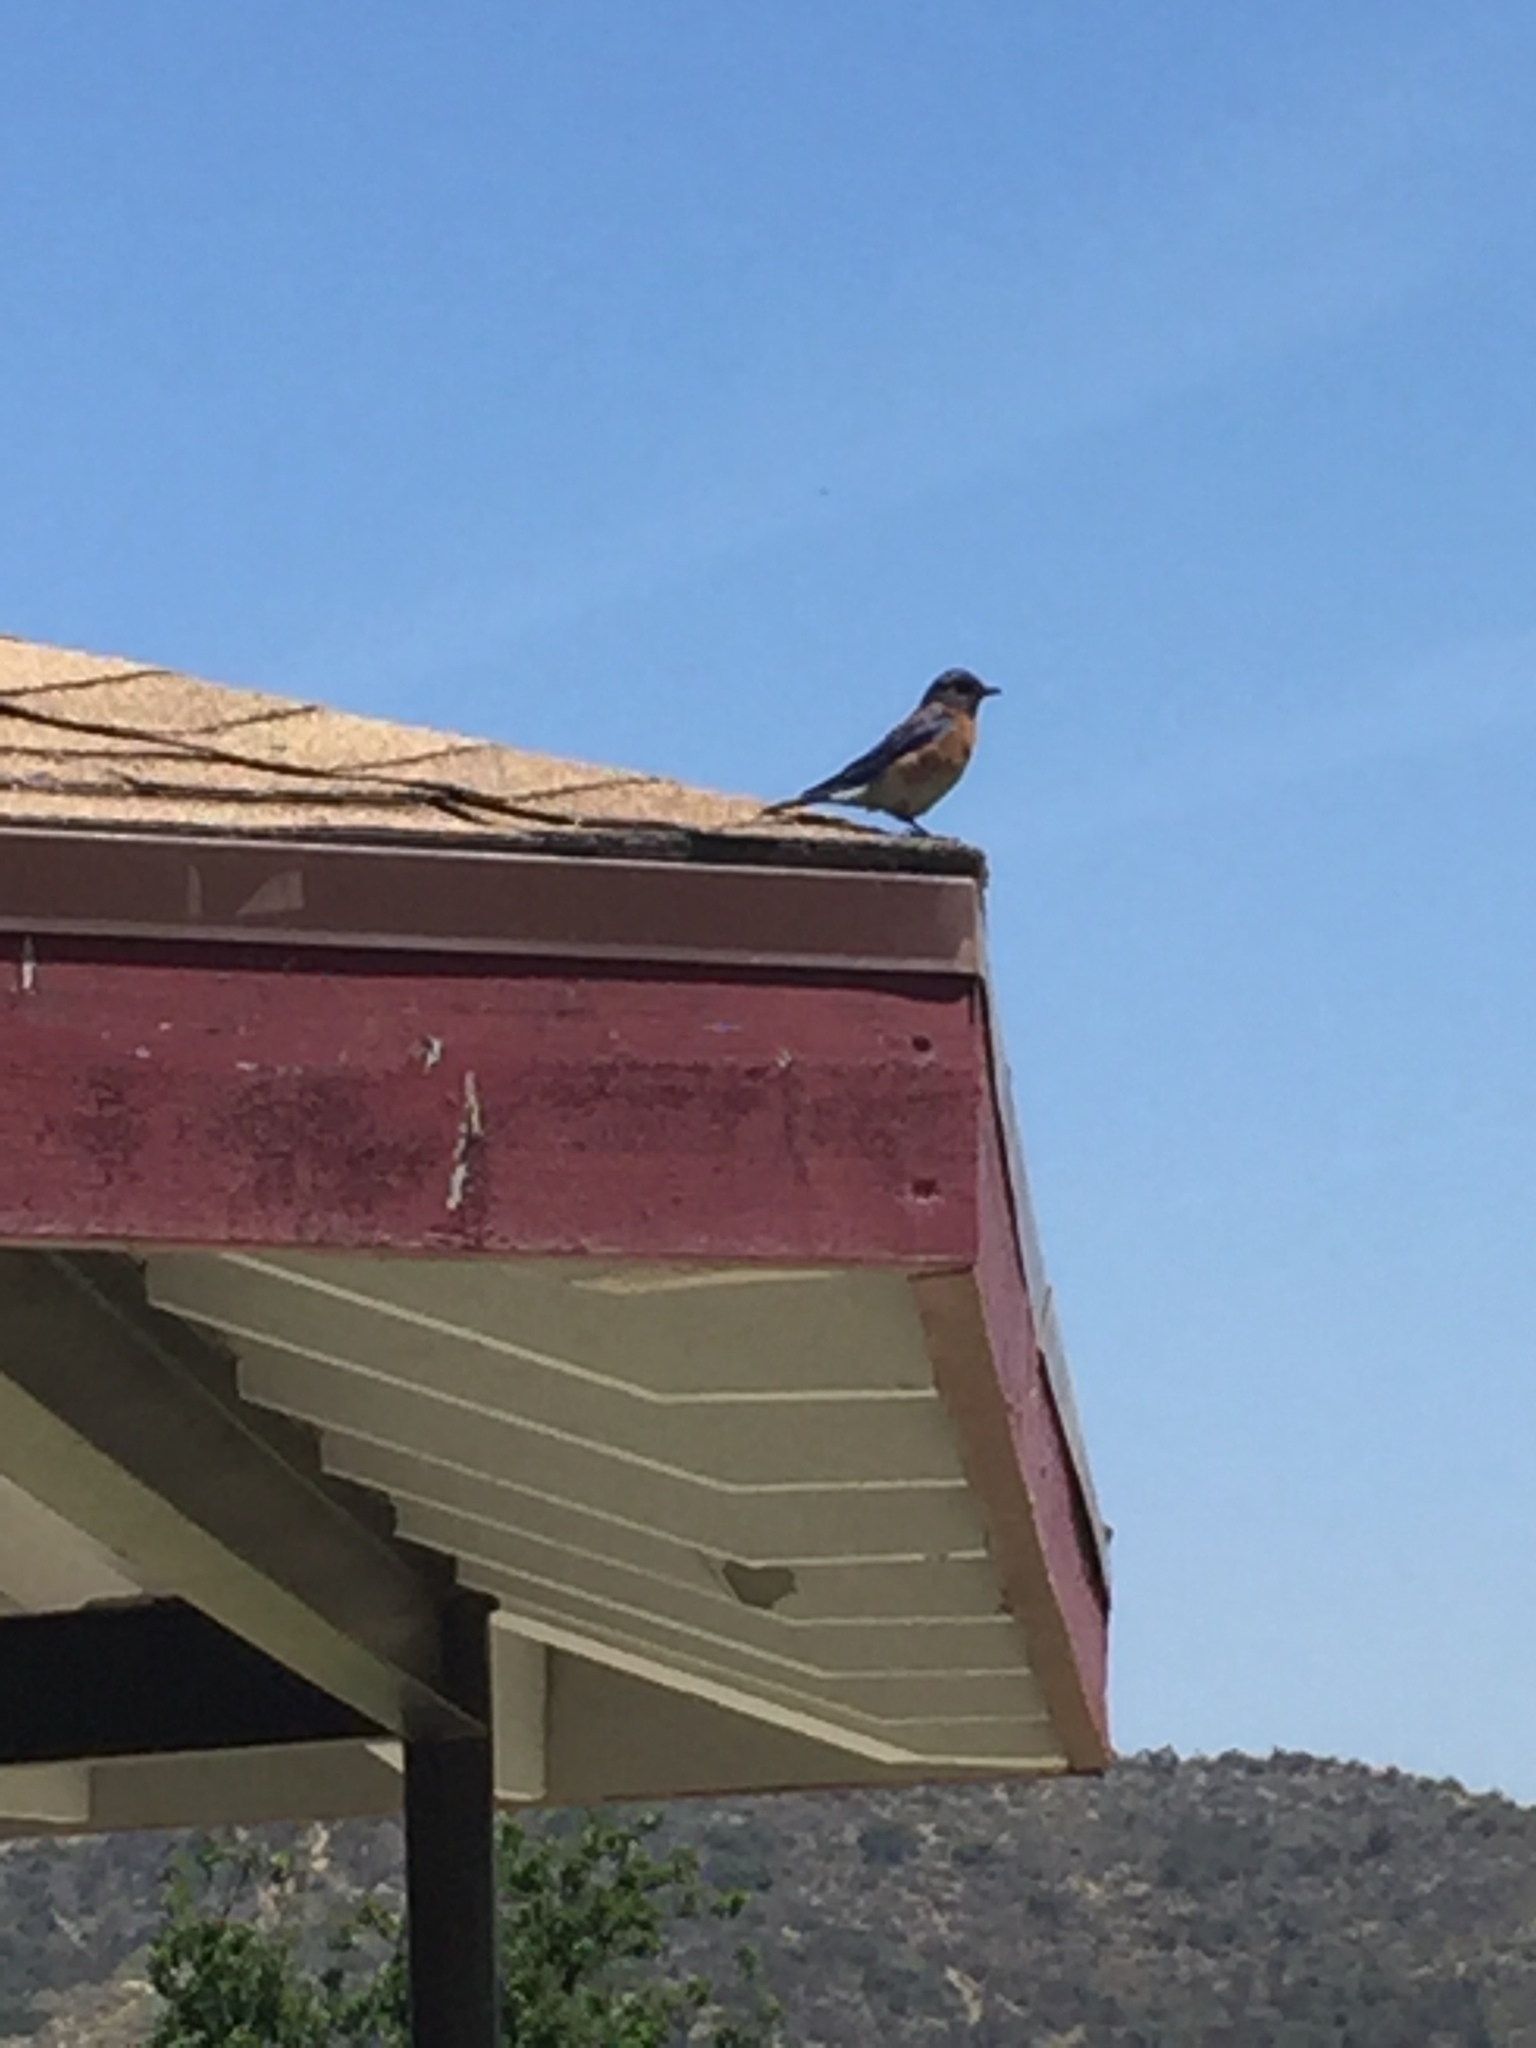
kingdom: Animalia
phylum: Chordata
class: Aves
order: Passeriformes
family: Turdidae
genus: Sialia
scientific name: Sialia mexicana
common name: Western bluebird
